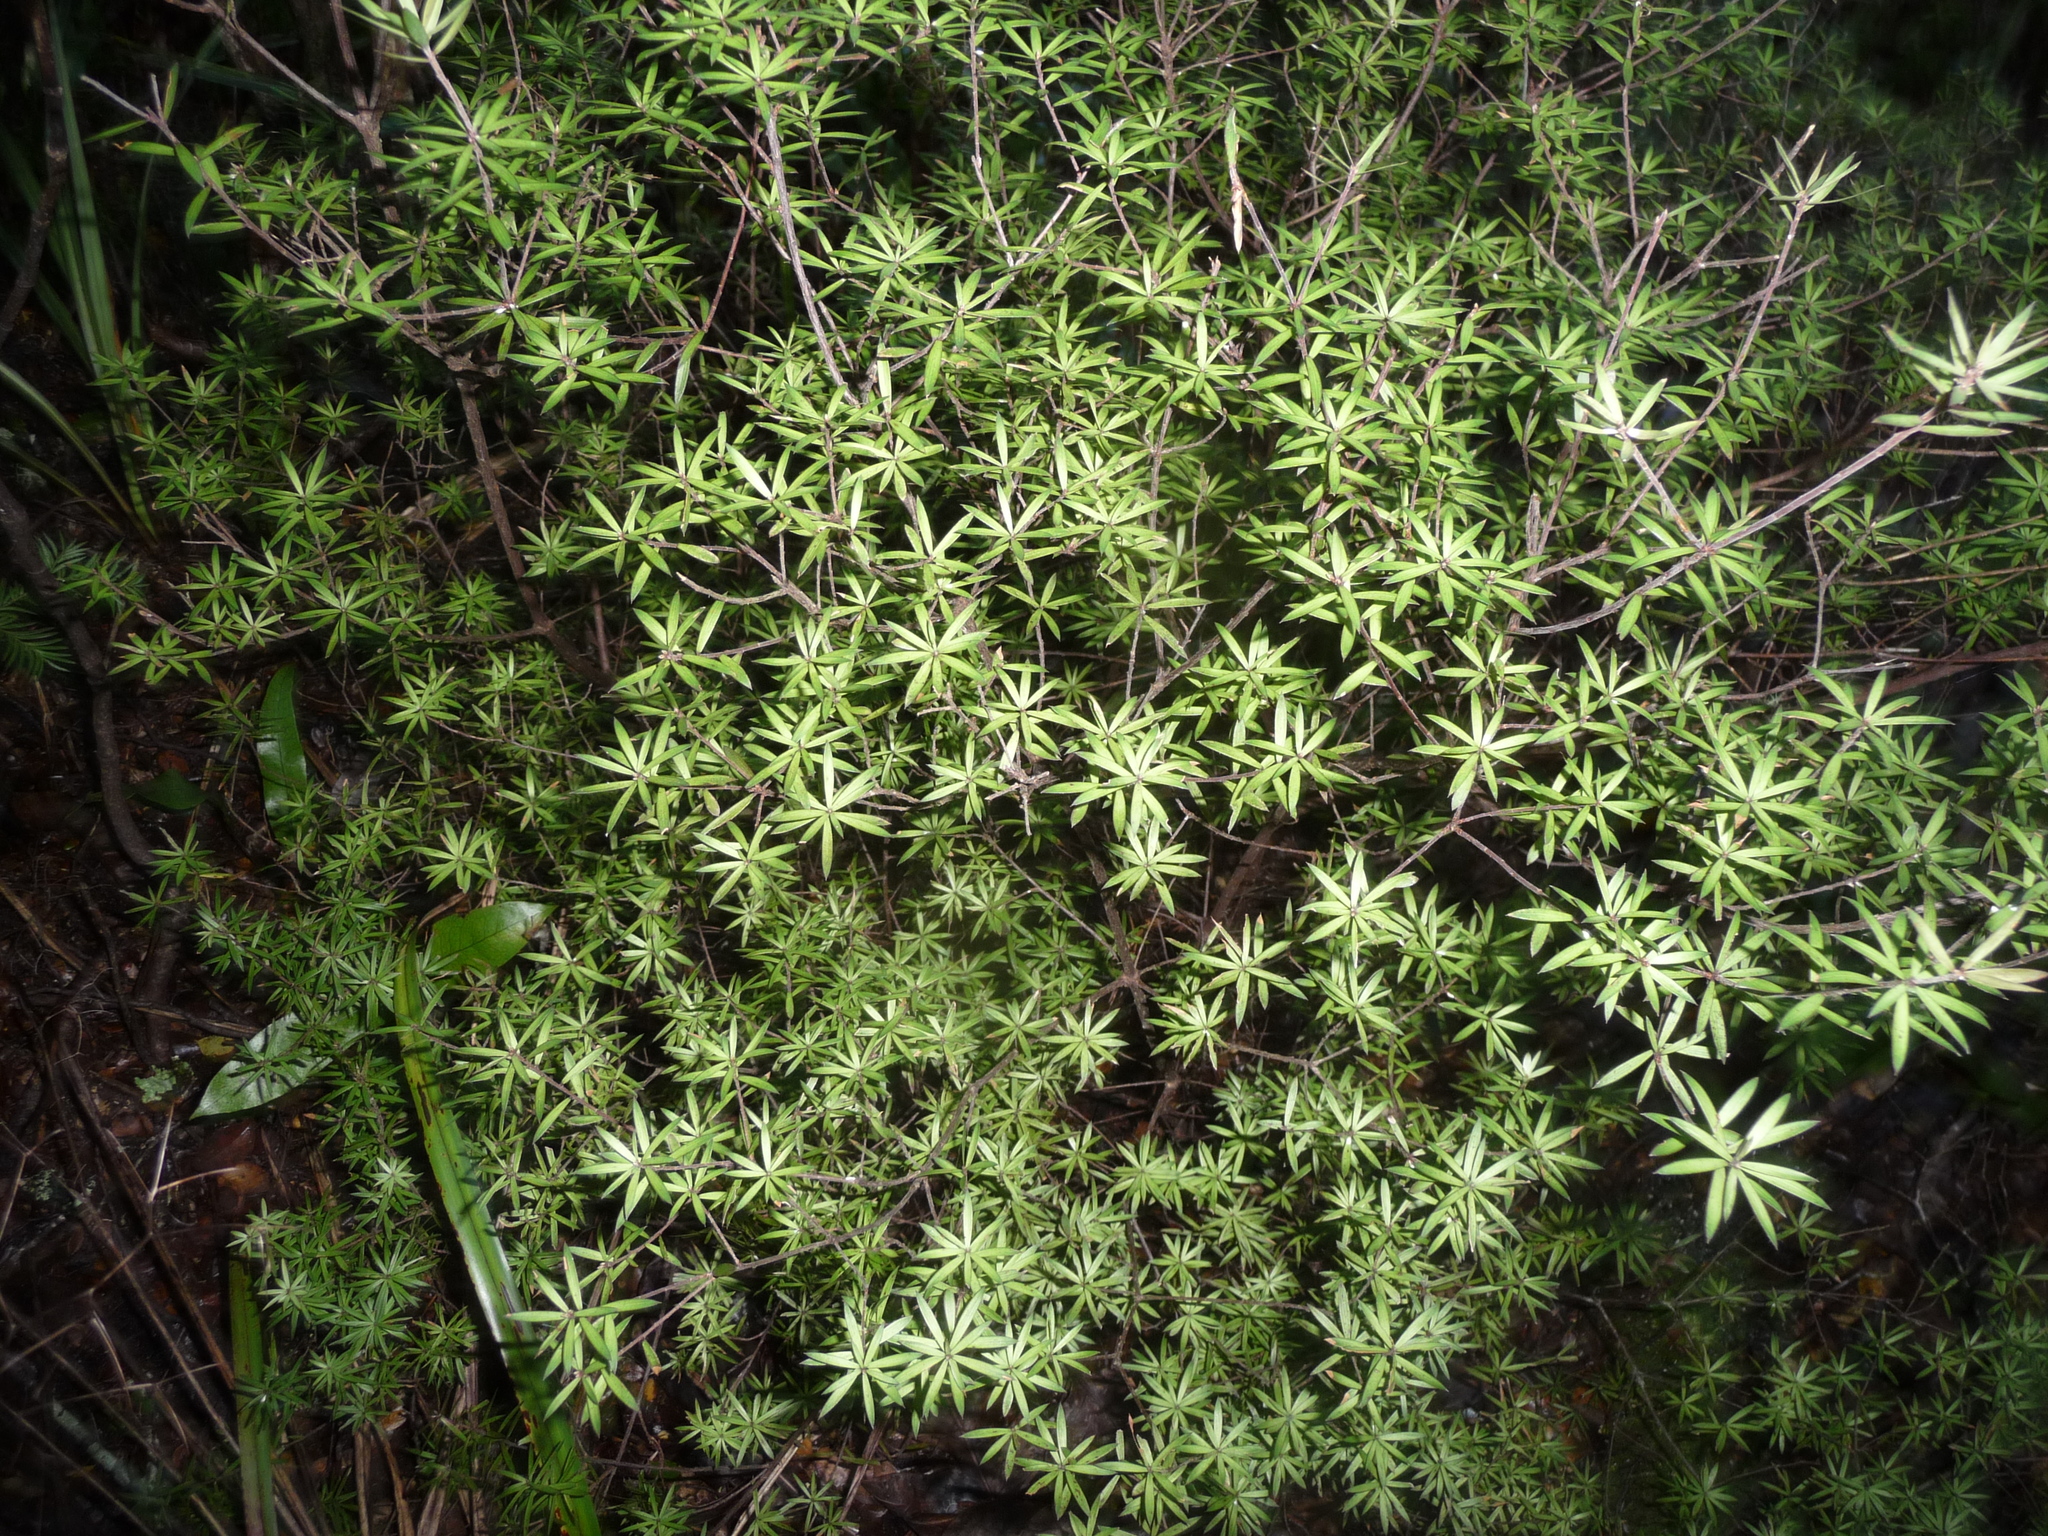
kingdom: Plantae
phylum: Tracheophyta
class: Magnoliopsida
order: Ericales
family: Ericaceae
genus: Leucopogon
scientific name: Leucopogon fasciculatus
